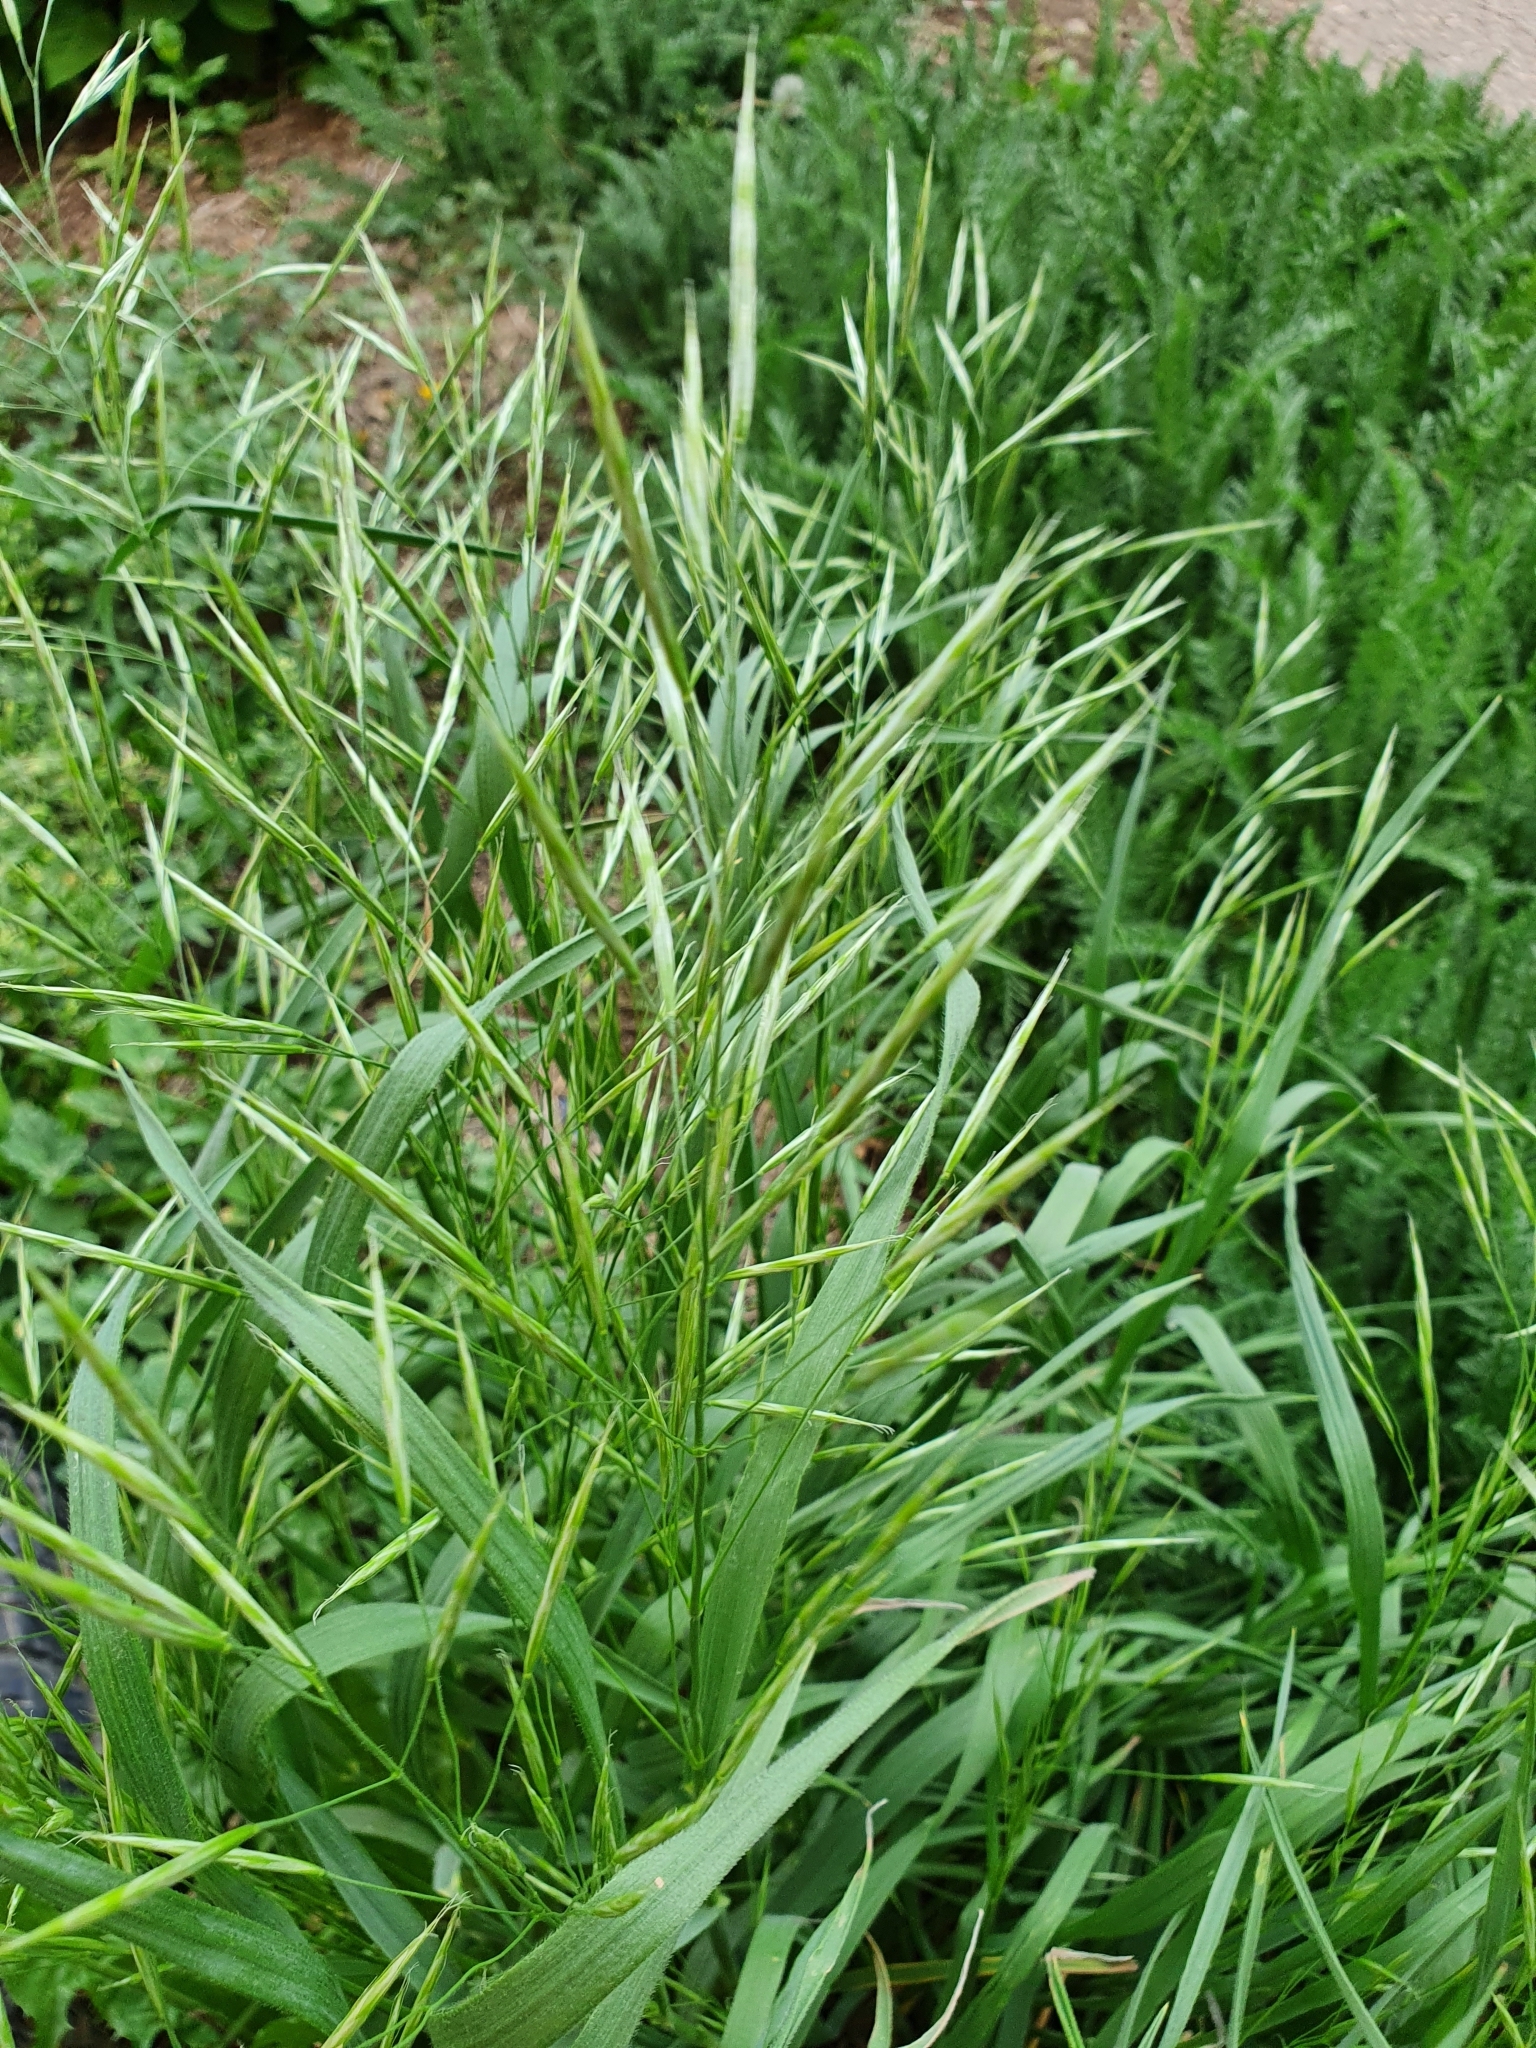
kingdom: Plantae
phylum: Tracheophyta
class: Liliopsida
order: Poales
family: Poaceae
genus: Bromus
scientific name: Bromus inermis
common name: Smooth brome
